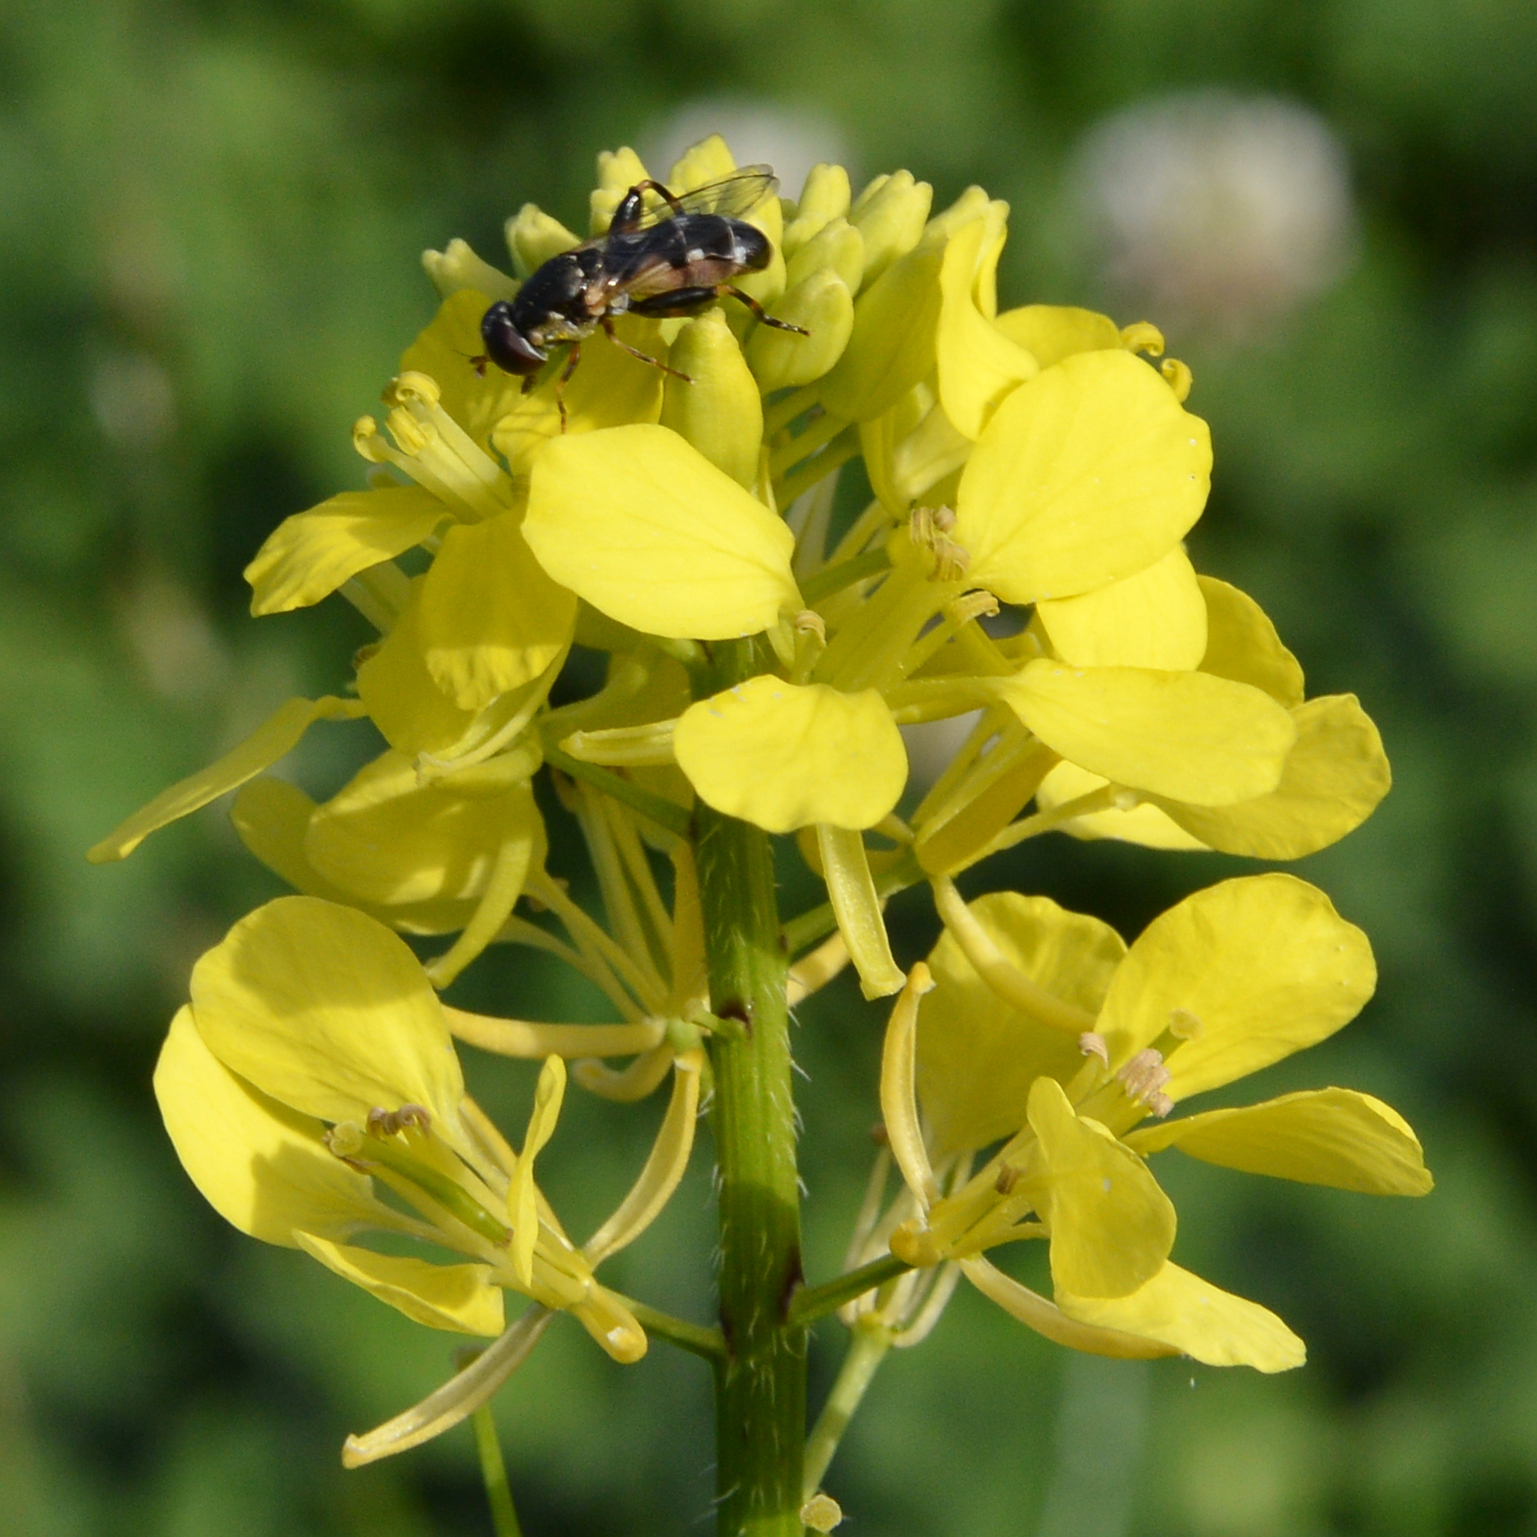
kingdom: Animalia
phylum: Arthropoda
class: Insecta
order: Diptera
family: Syrphidae
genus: Syritta
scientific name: Syritta pipiens
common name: Hover fly
